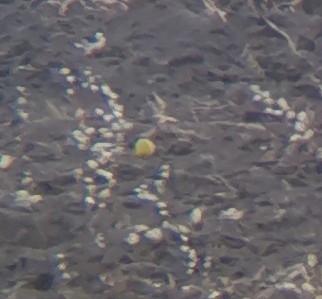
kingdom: Animalia
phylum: Chordata
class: Aves
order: Passeriformes
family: Motacillidae
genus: Motacilla
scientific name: Motacilla flava
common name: Western yellow wagtail
